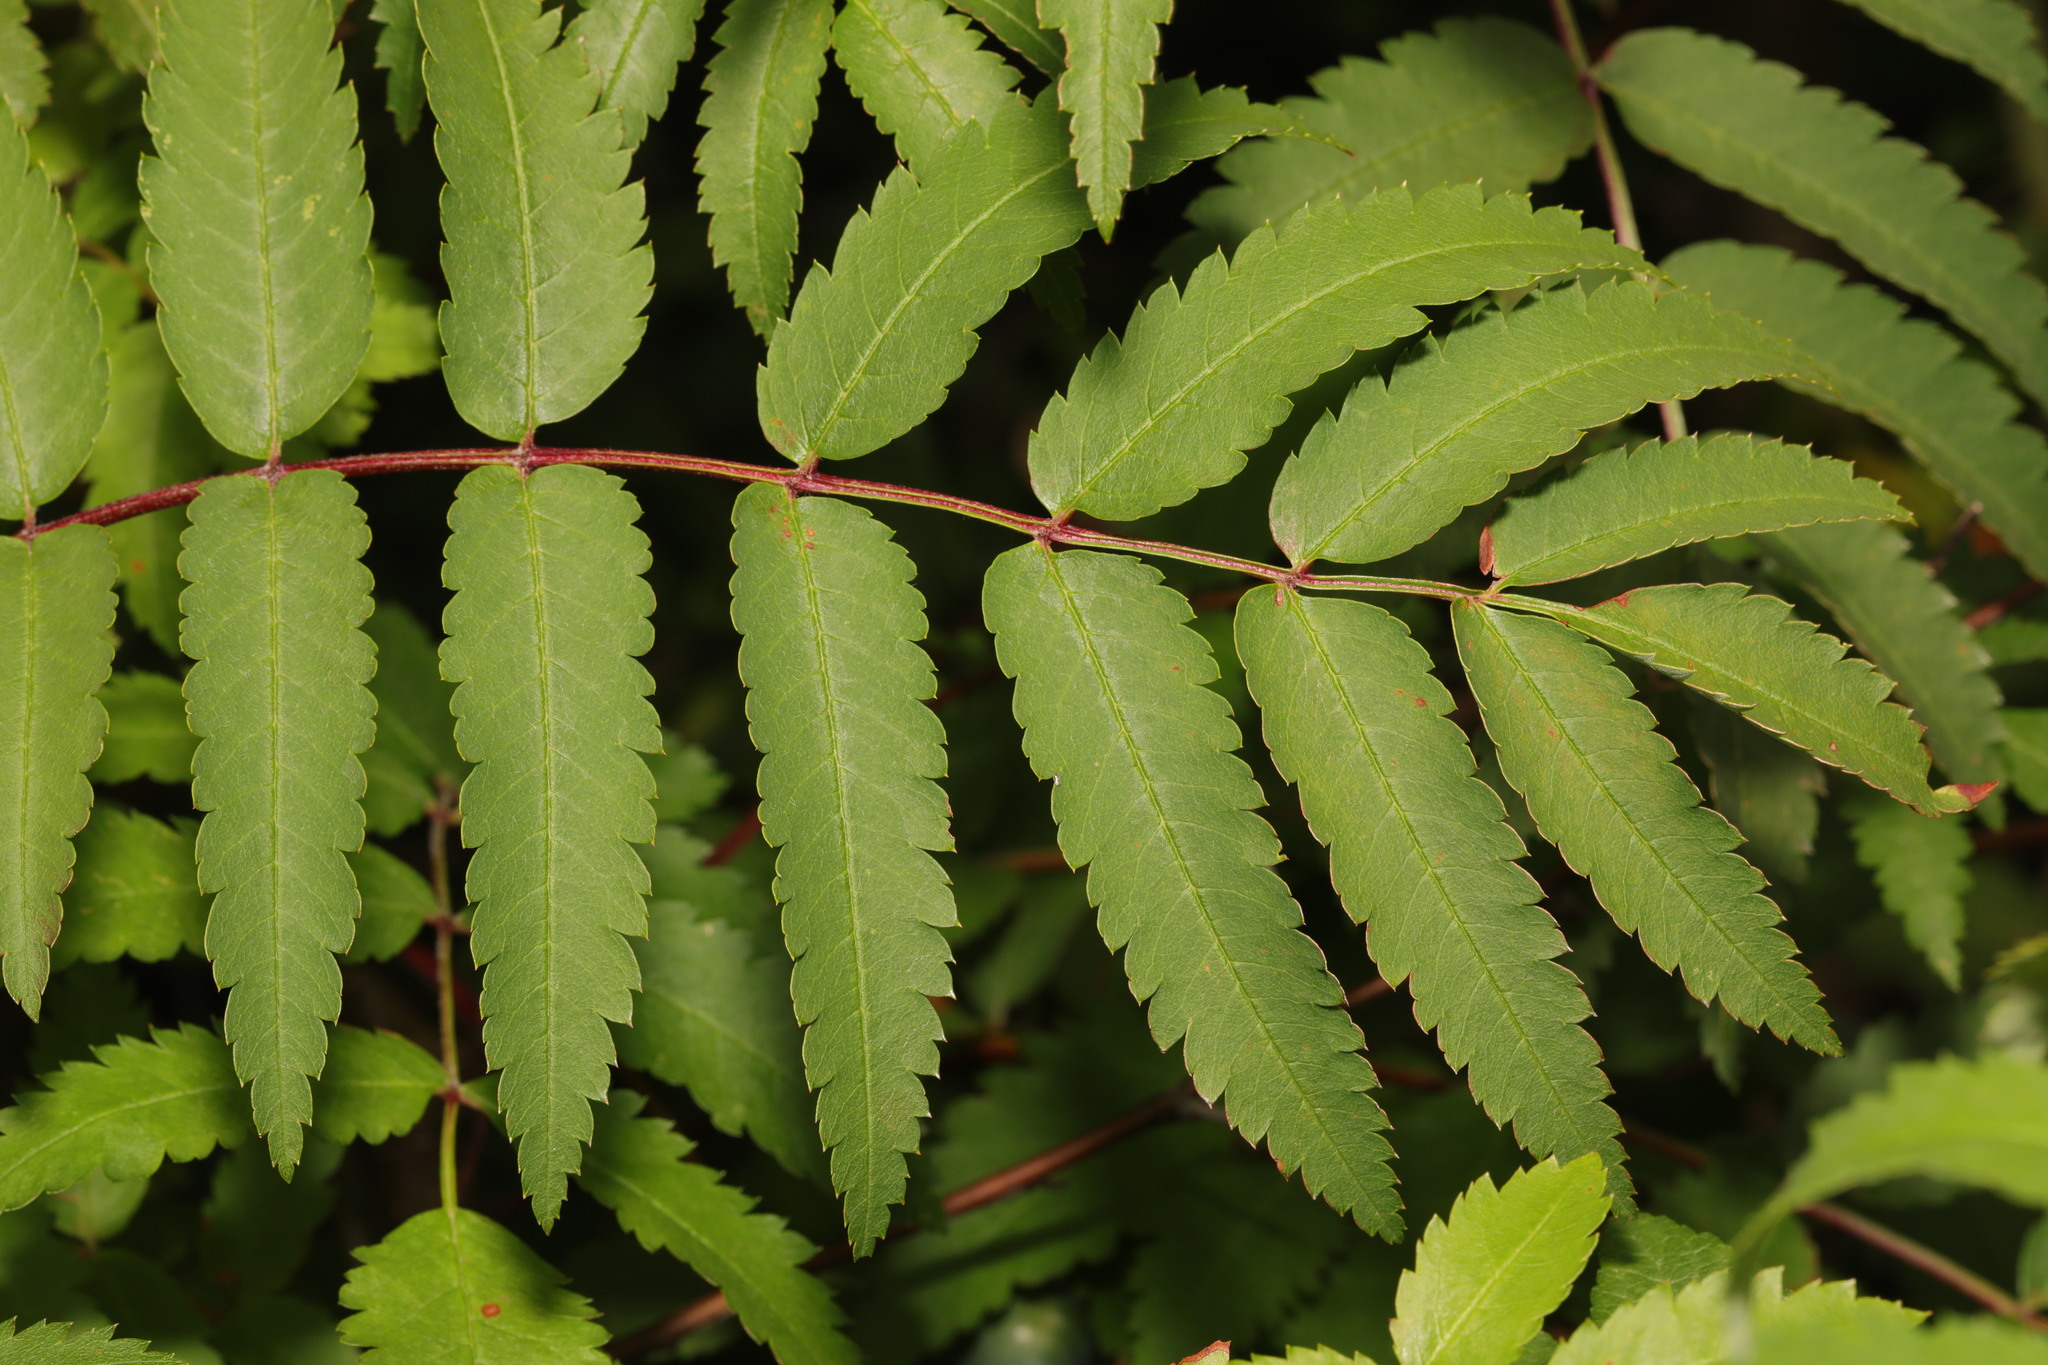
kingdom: Plantae
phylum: Tracheophyta
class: Magnoliopsida
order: Rosales
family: Rosaceae
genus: Sorbus
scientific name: Sorbus aucuparia
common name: Rowan
